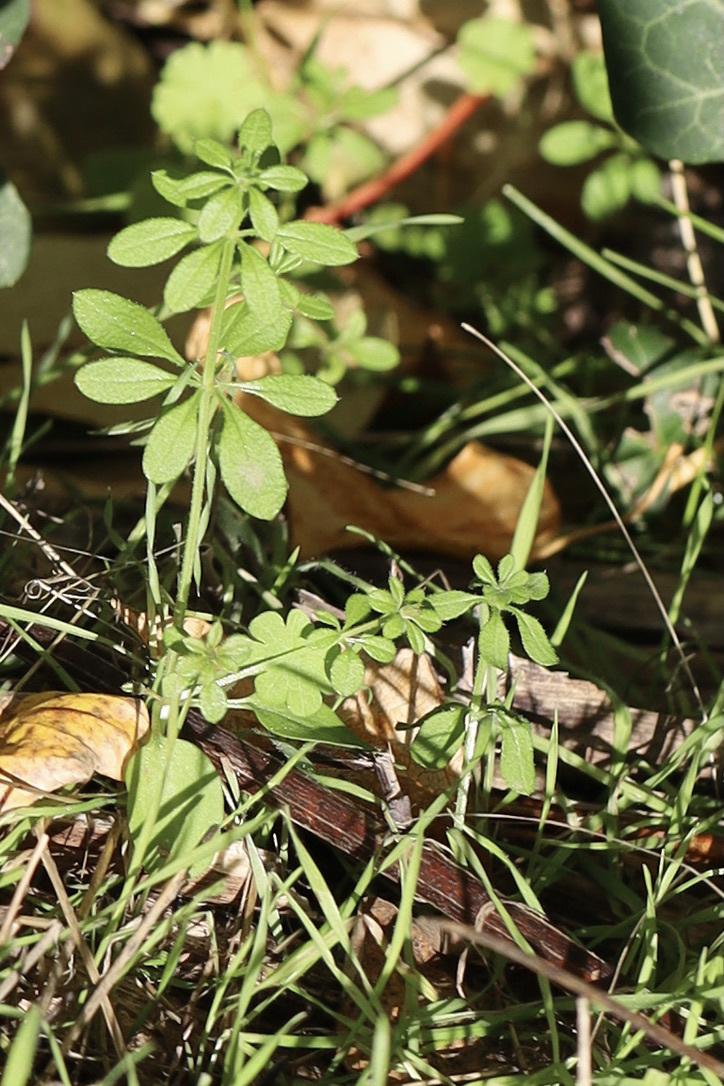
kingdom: Plantae
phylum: Tracheophyta
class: Magnoliopsida
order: Gentianales
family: Rubiaceae
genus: Galium
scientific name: Galium aparine
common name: Cleavers
